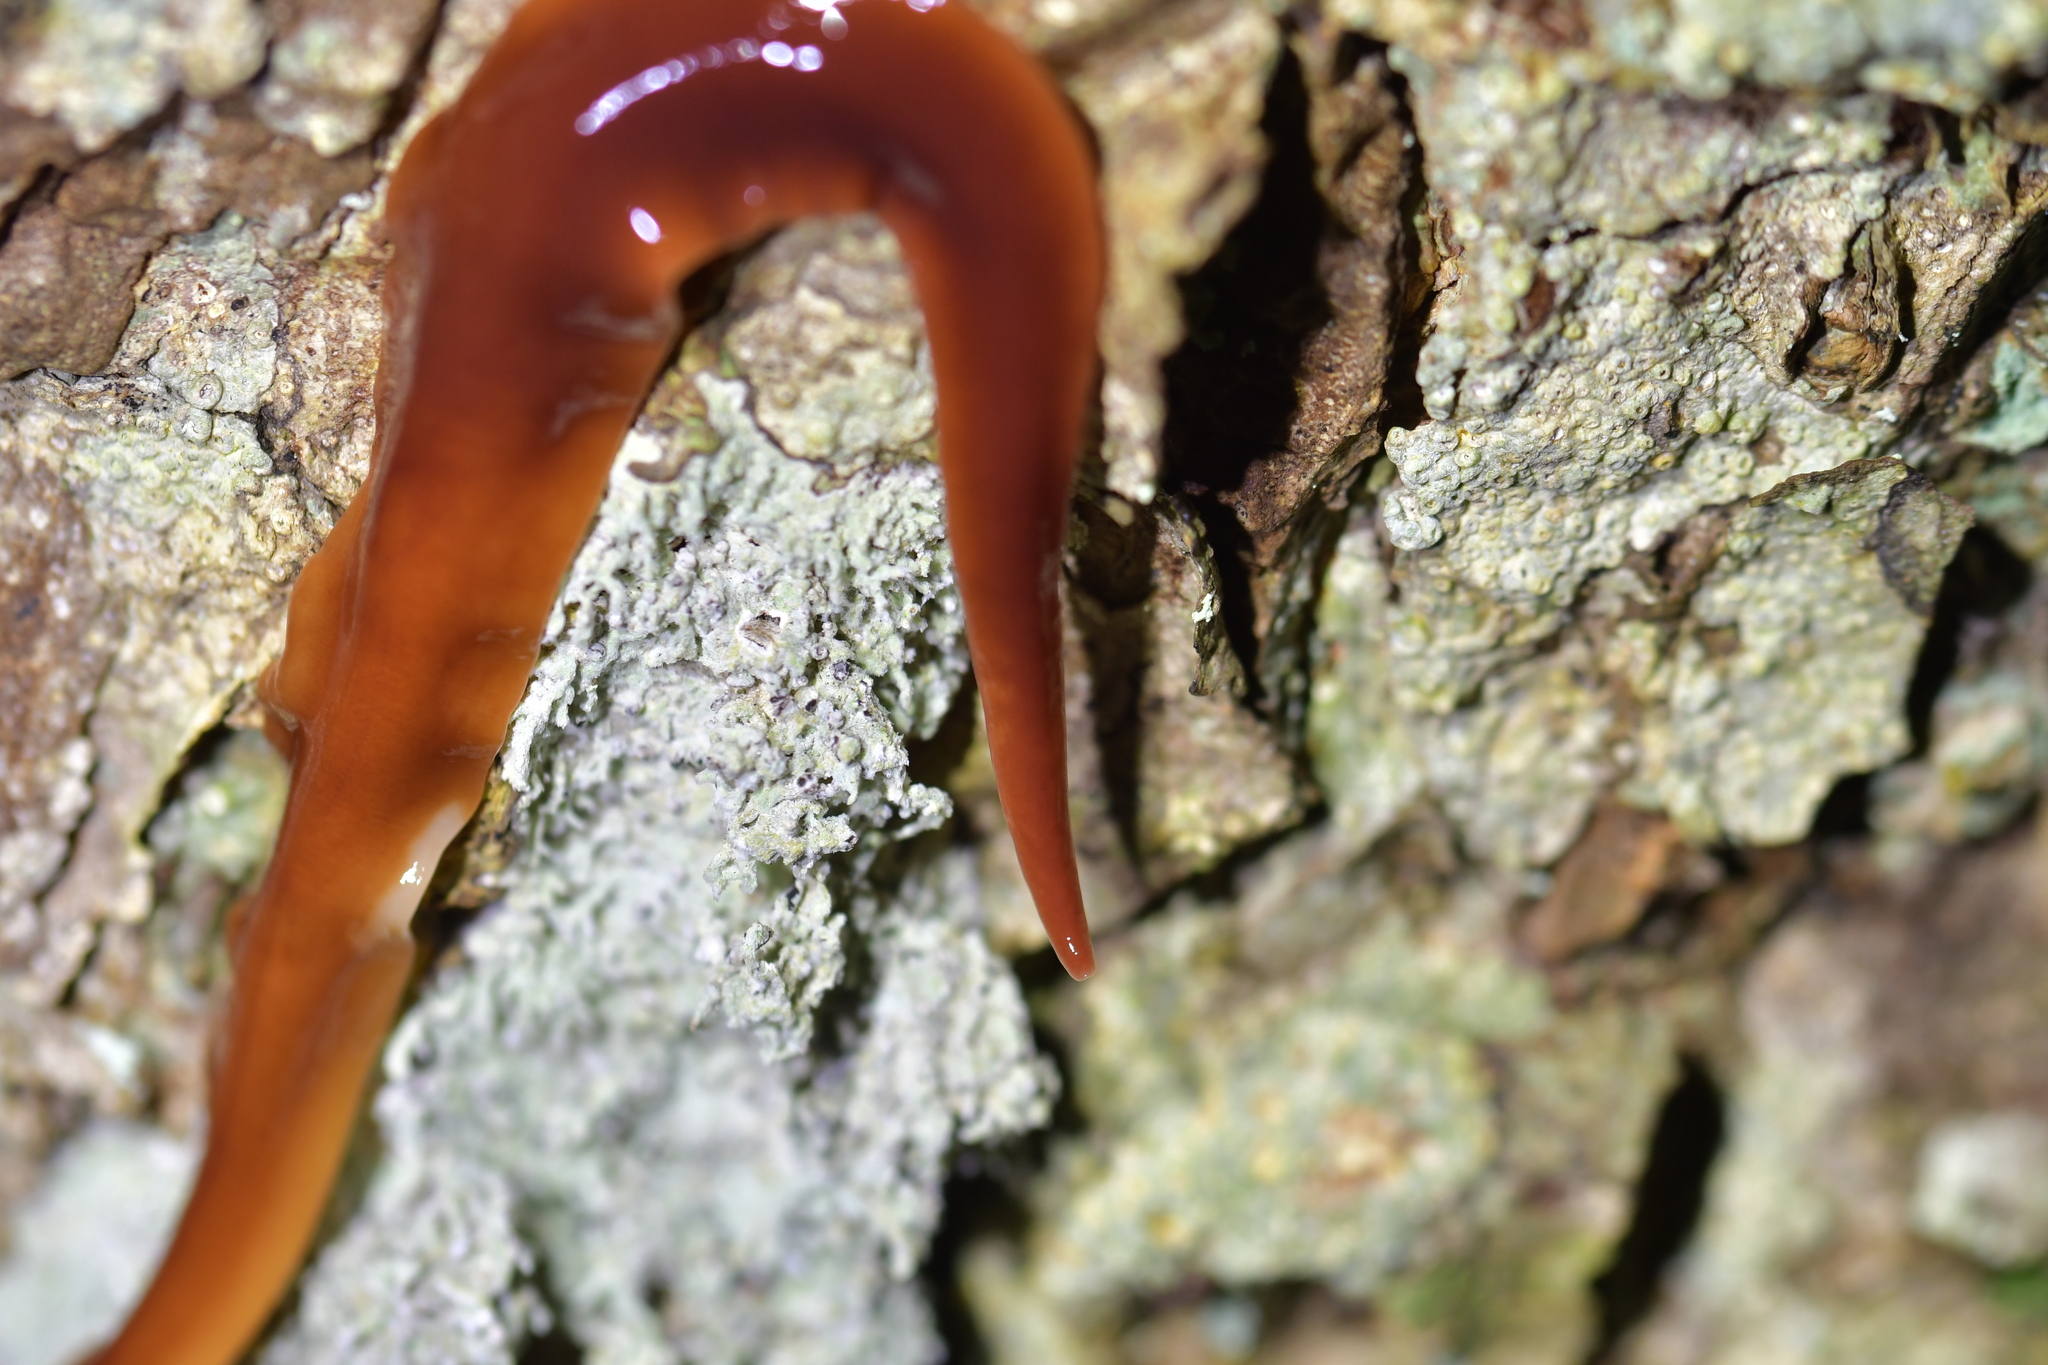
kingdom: Animalia
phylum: Platyhelminthes
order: Tricladida
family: Geoplanidae
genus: Arthurdendyus
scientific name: Arthurdendyus latissimus
